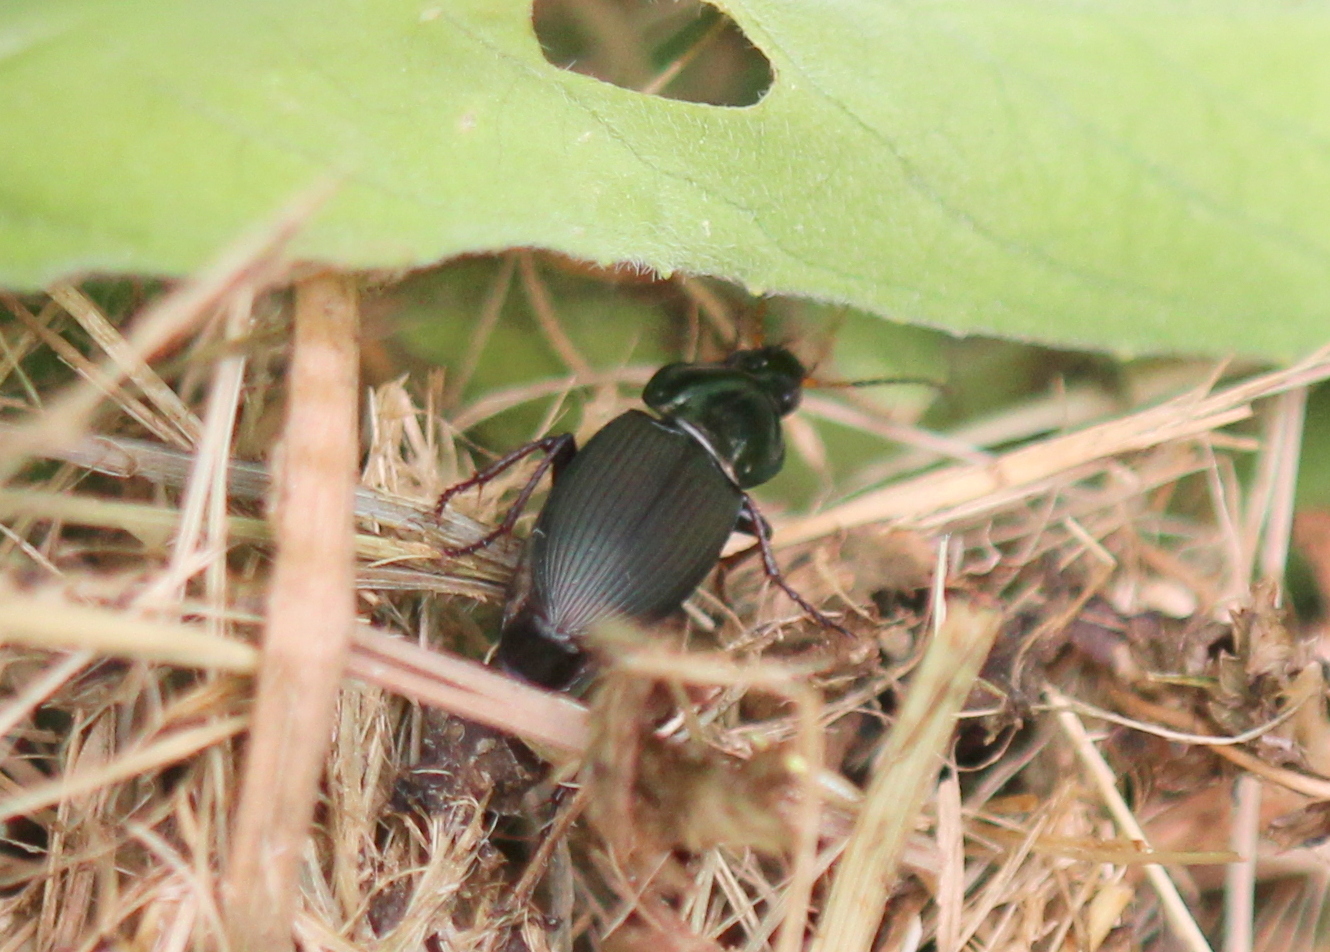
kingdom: Animalia
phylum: Arthropoda
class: Insecta
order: Coleoptera
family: Carabidae
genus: Poecilus
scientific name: Poecilus lucublandus
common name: Woodland ground beetle
